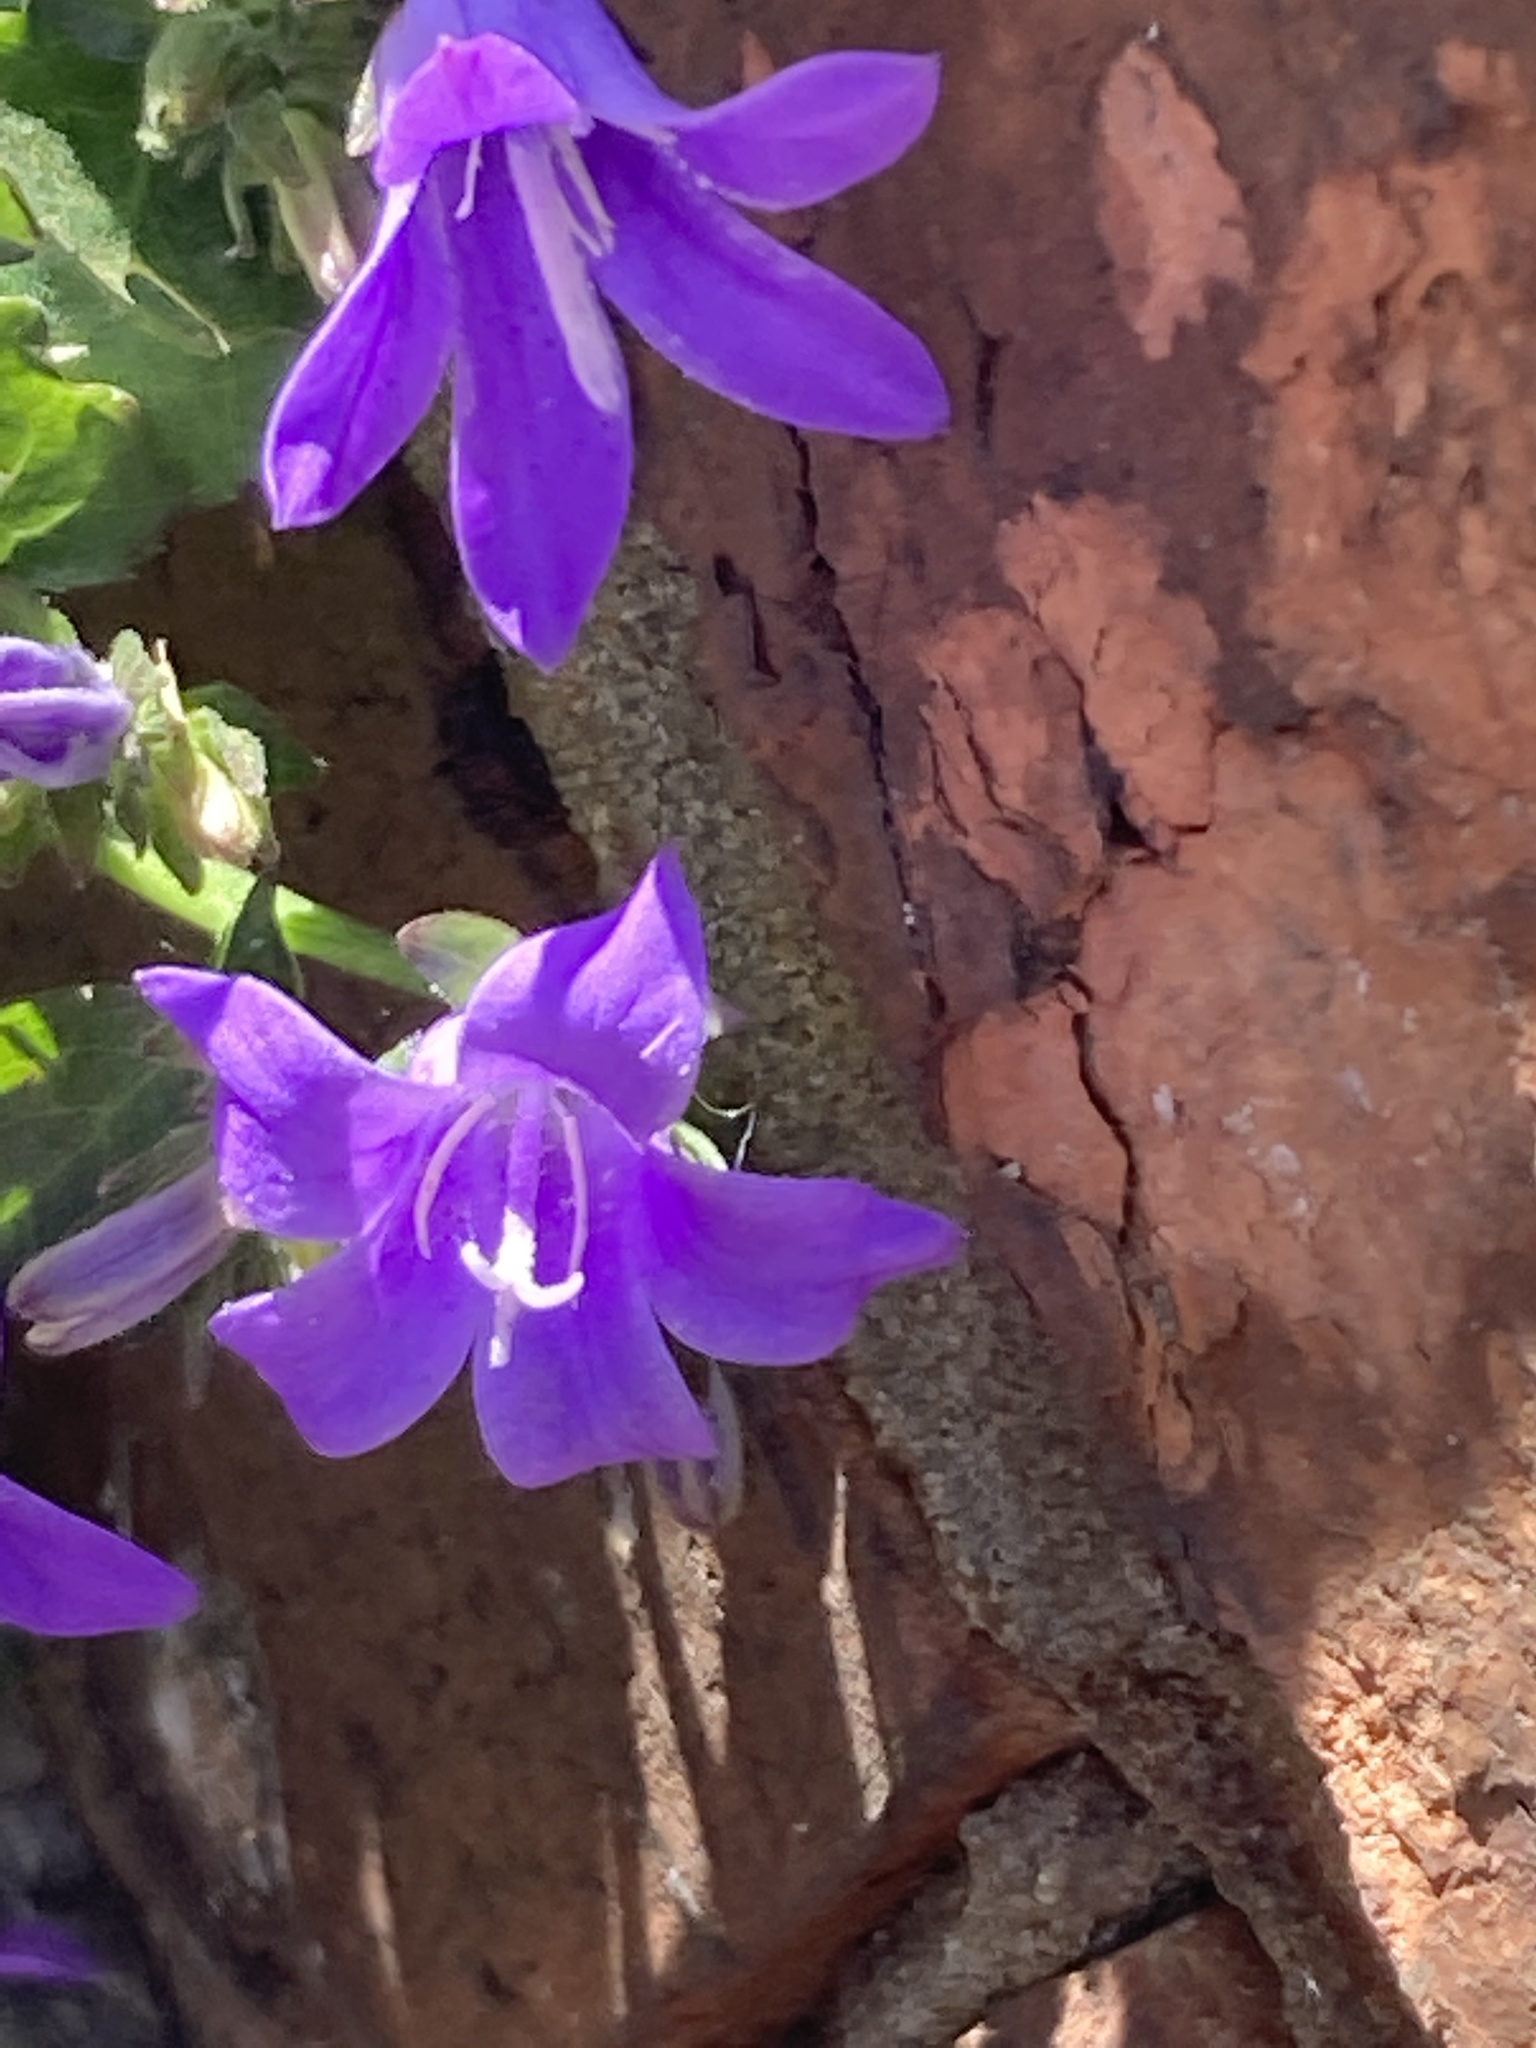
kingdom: Plantae
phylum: Tracheophyta
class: Magnoliopsida
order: Asterales
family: Campanulaceae
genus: Campanula
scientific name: Campanula poscharskyana
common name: Trailing bellflower
